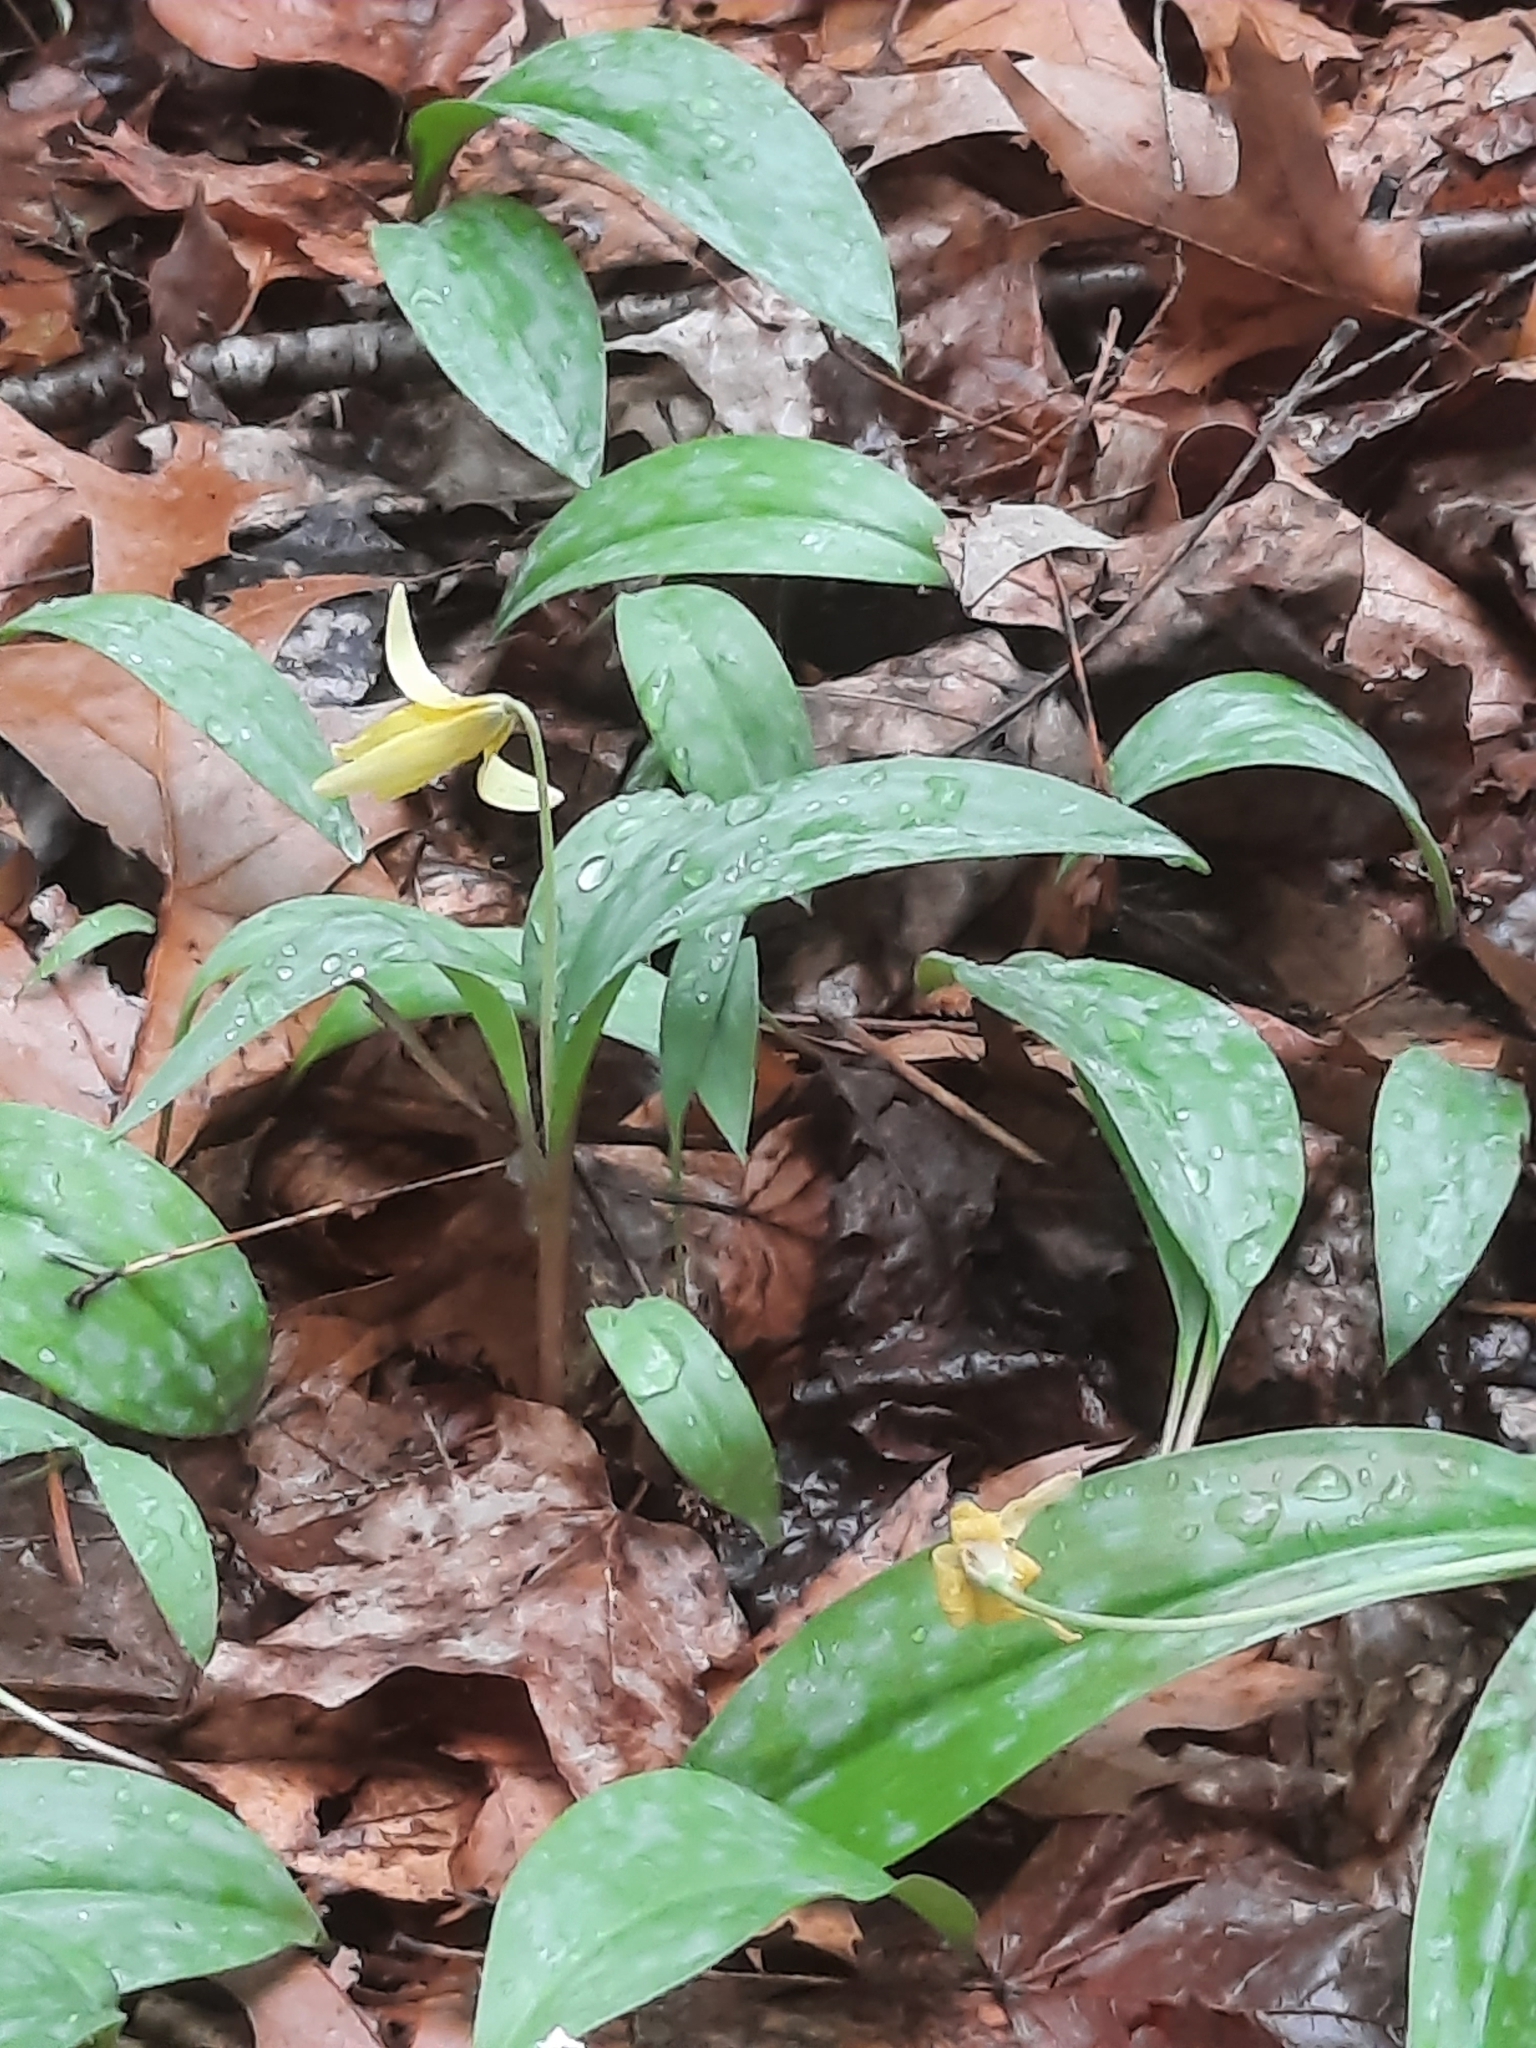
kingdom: Plantae
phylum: Tracheophyta
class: Liliopsida
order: Liliales
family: Liliaceae
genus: Erythronium
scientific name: Erythronium americanum
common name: Yellow adder's-tongue
